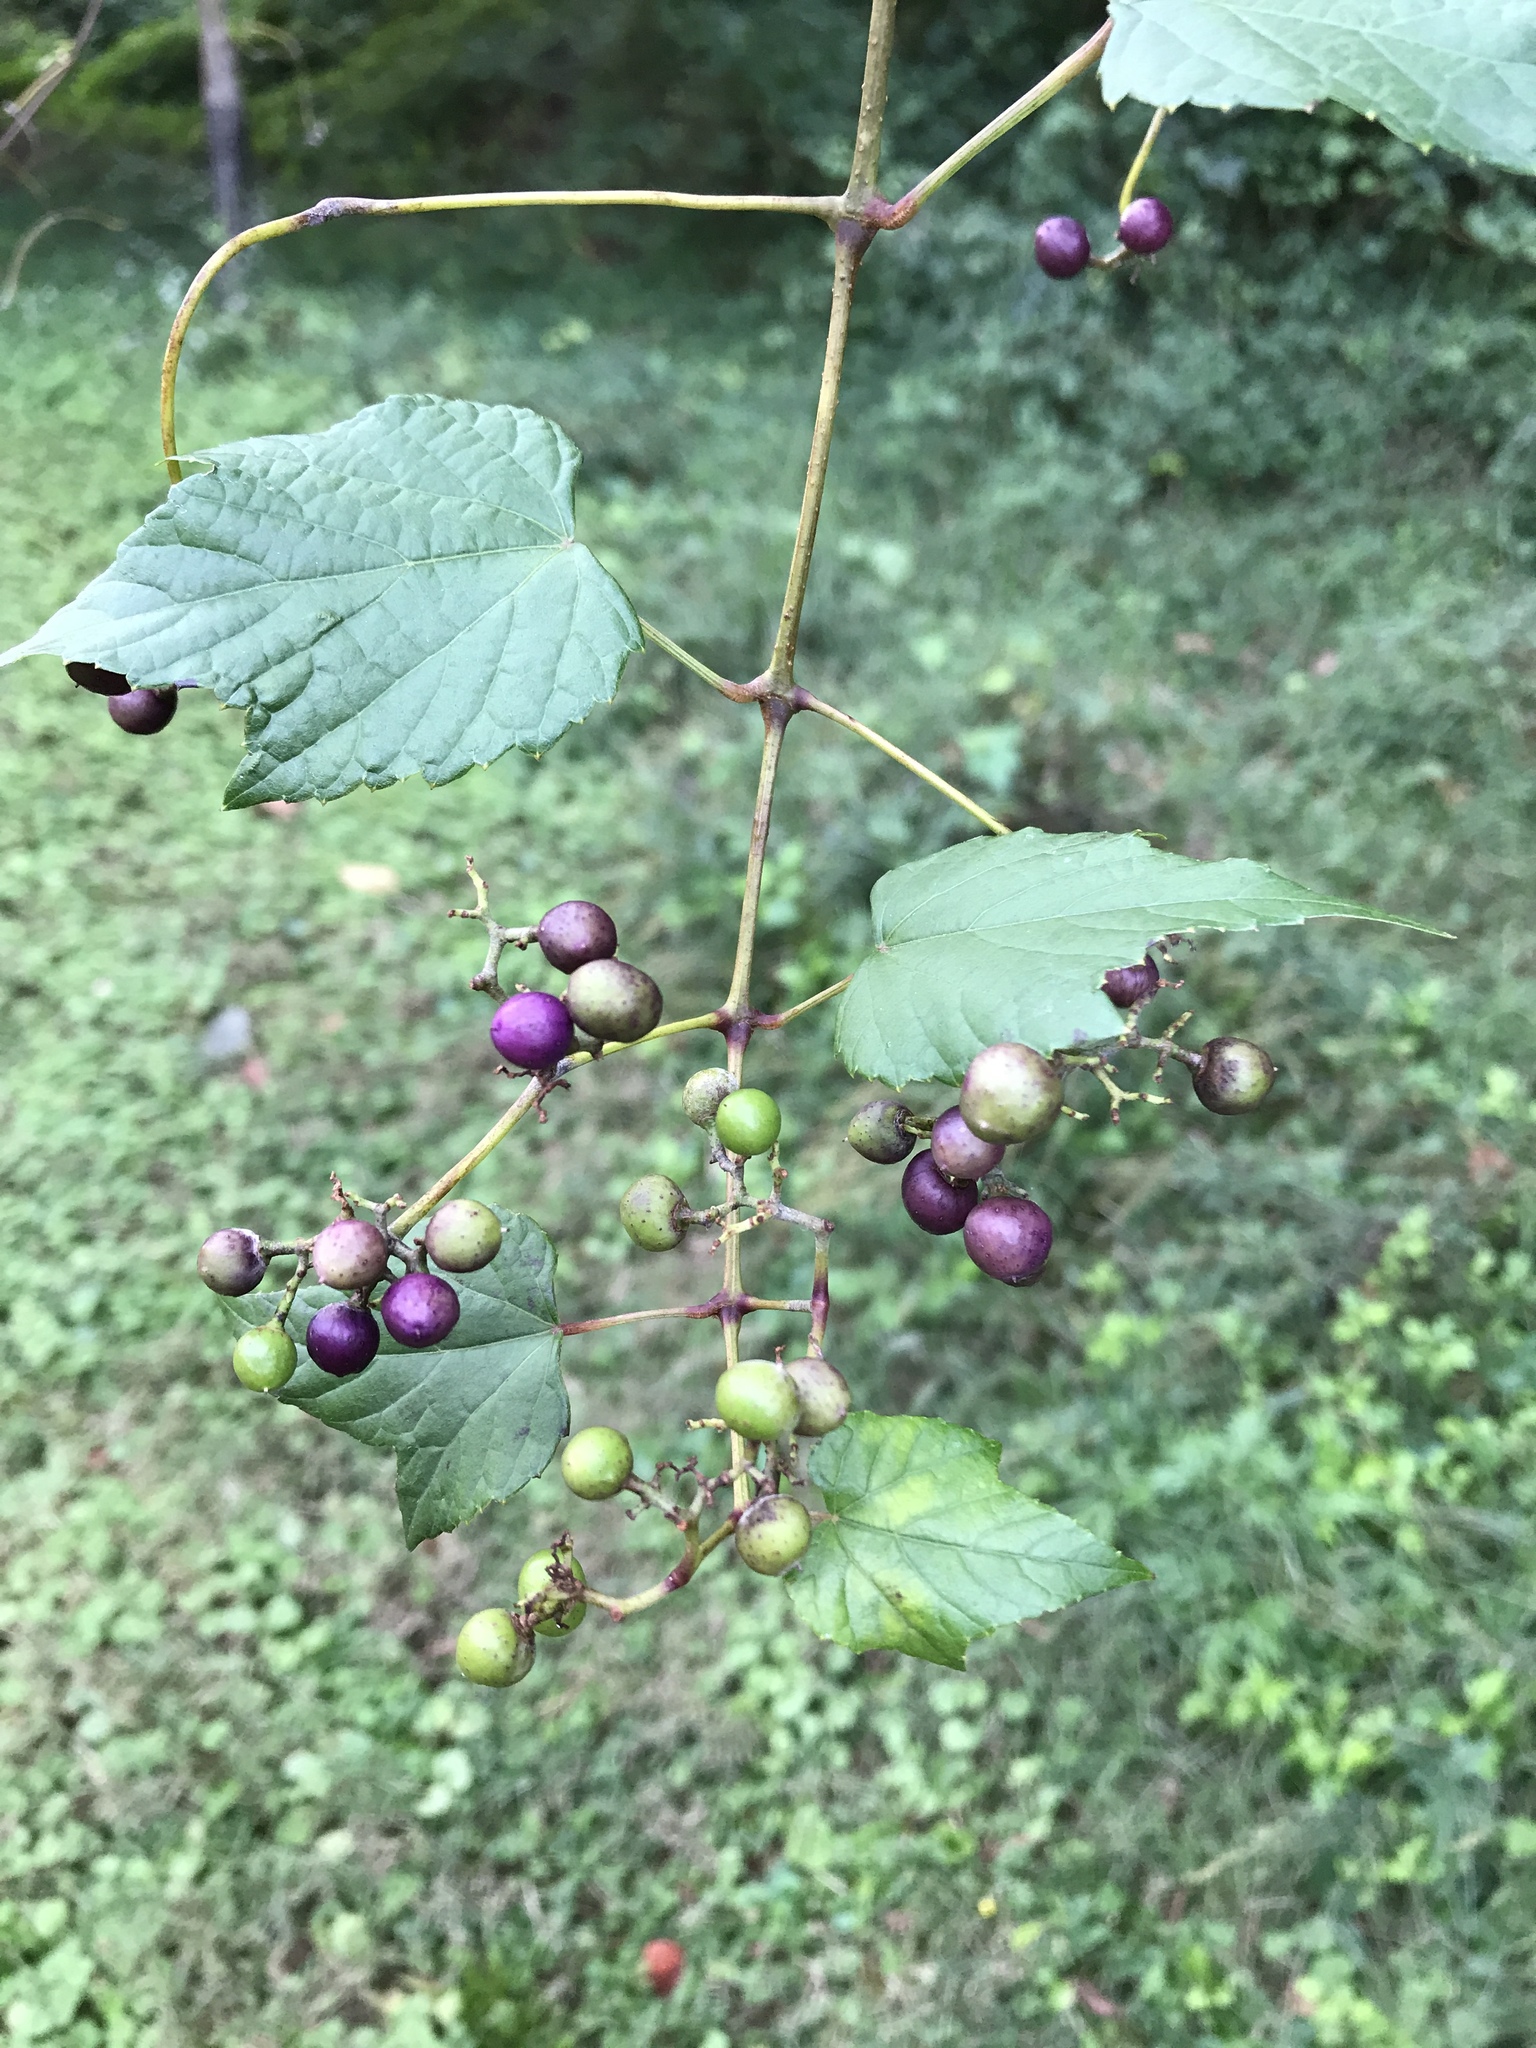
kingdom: Plantae
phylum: Tracheophyta
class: Magnoliopsida
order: Vitales
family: Vitaceae
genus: Ampelopsis
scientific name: Ampelopsis glandulosa
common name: Amur peppervine
